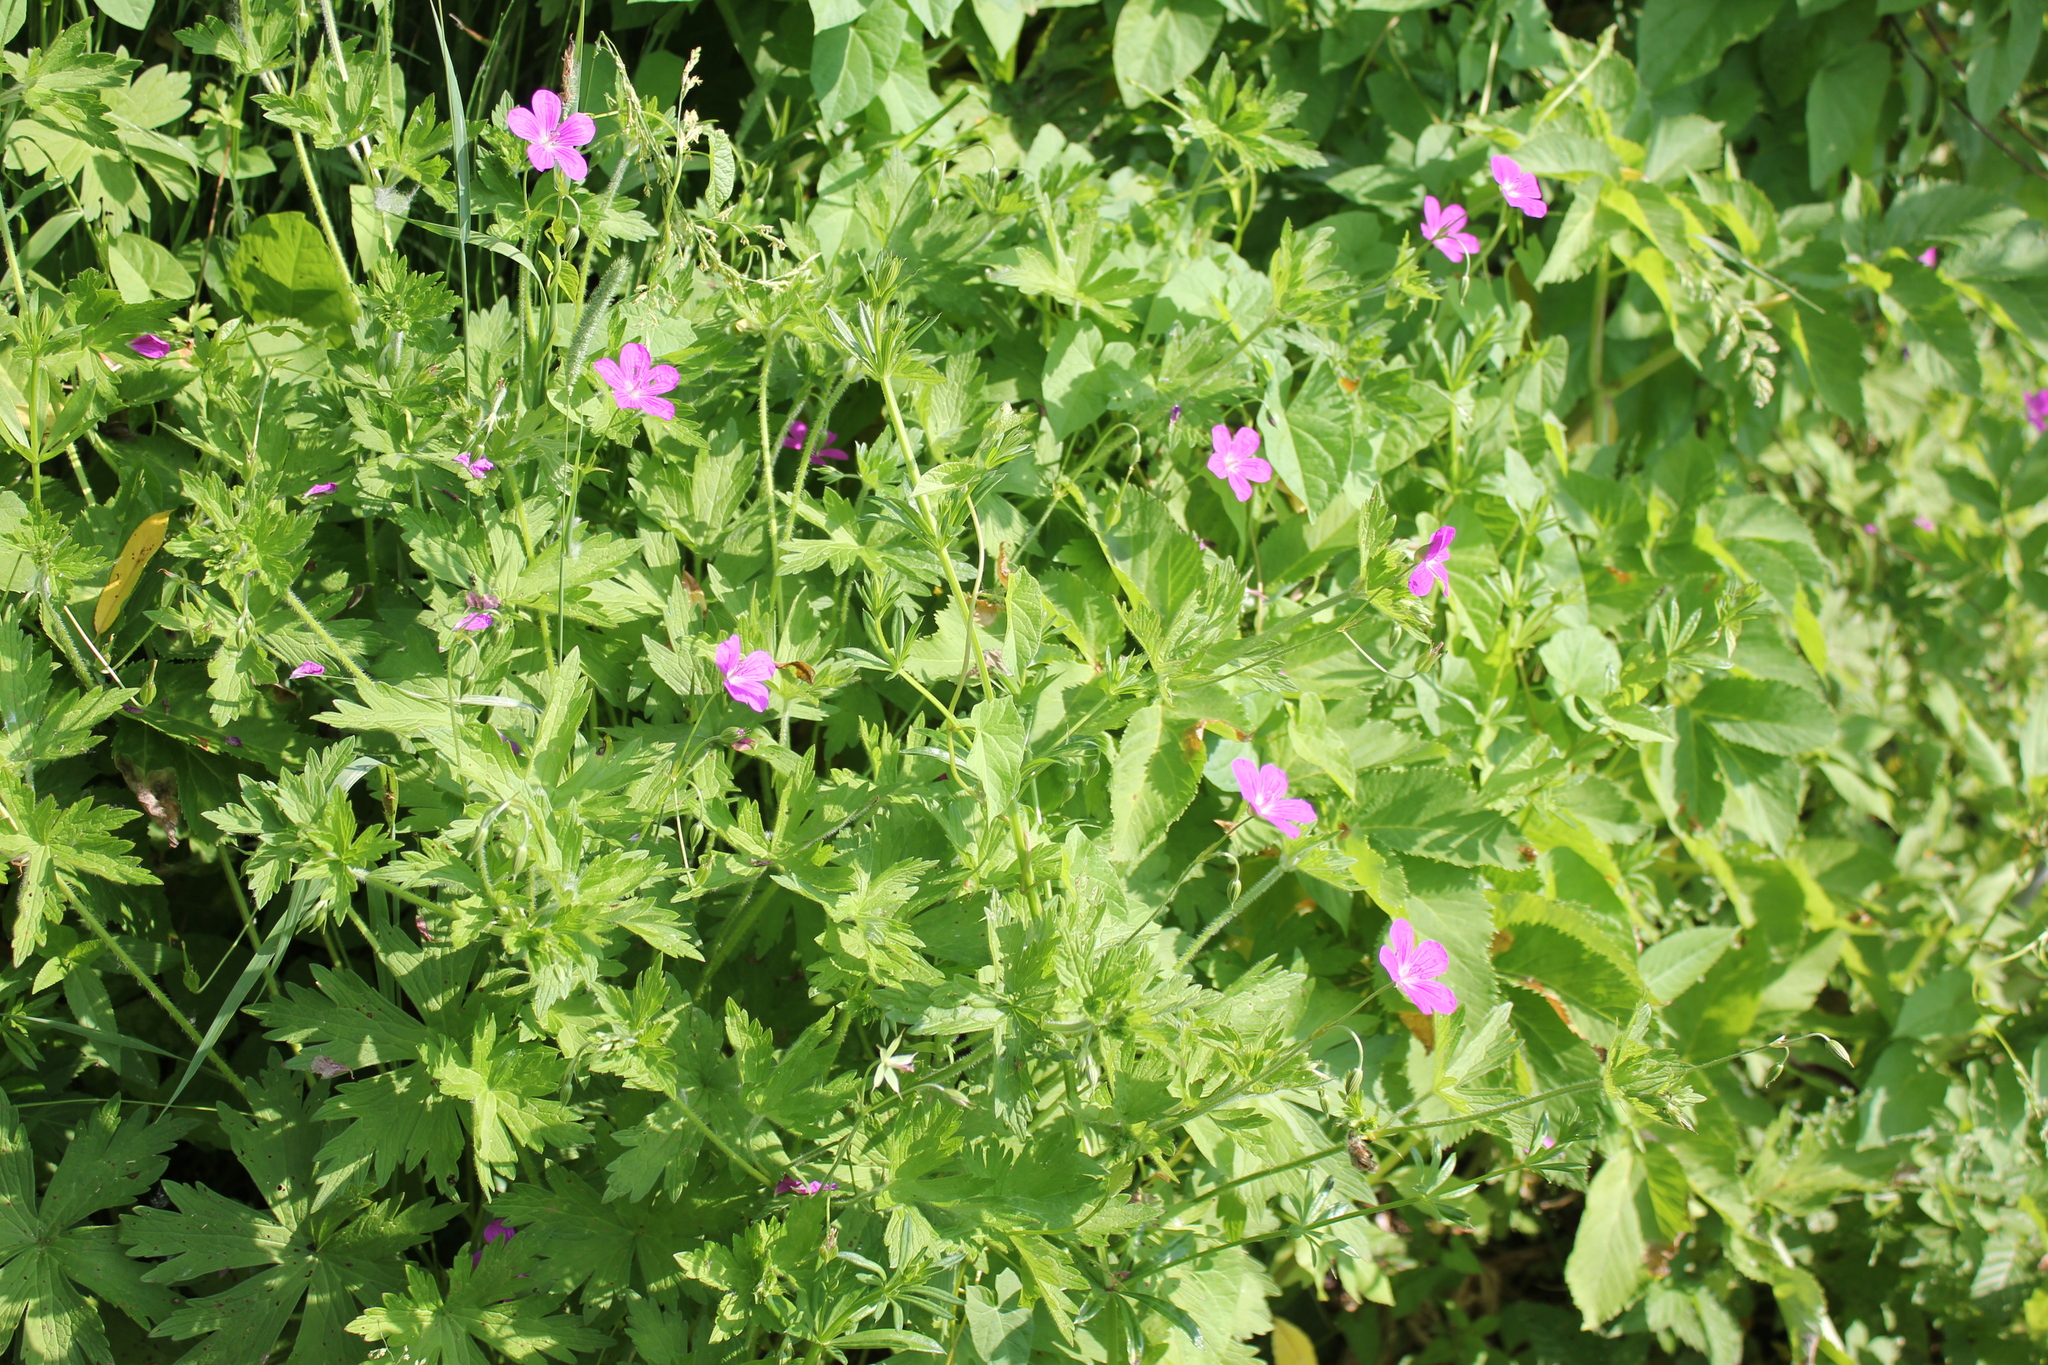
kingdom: Plantae
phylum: Tracheophyta
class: Magnoliopsida
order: Geraniales
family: Geraniaceae
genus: Geranium
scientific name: Geranium palustre
